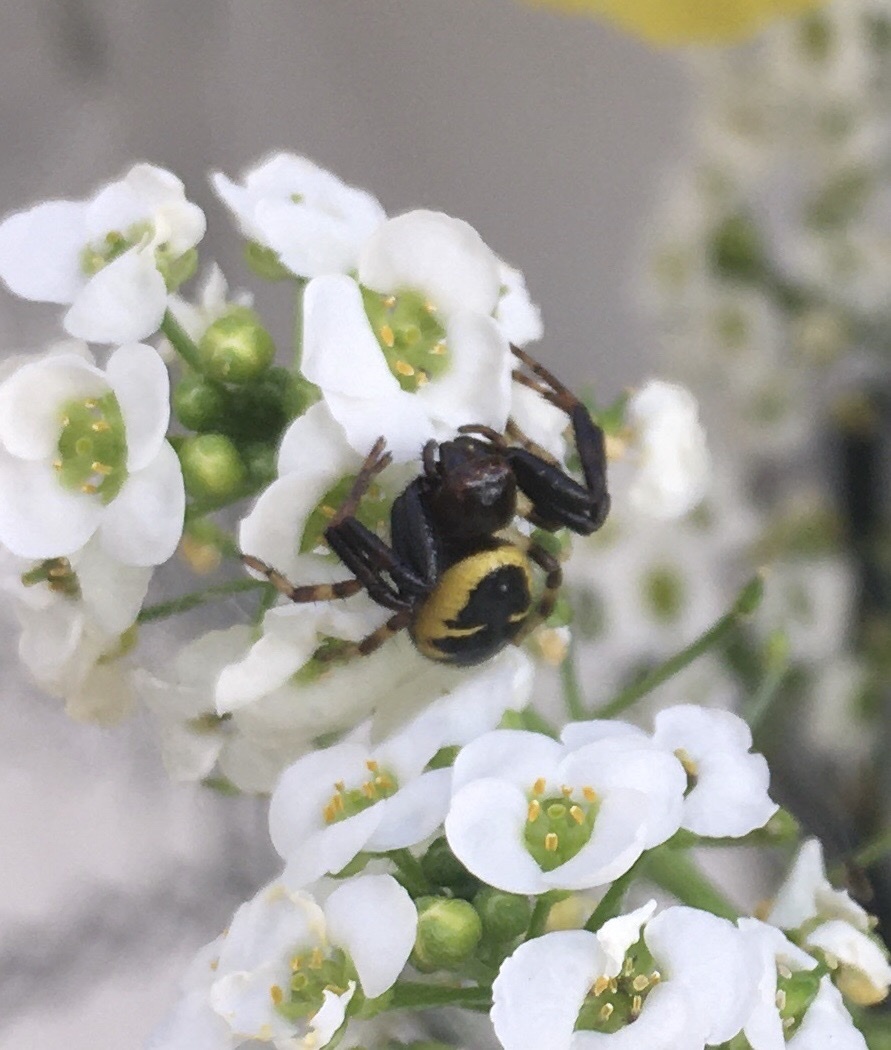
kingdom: Animalia
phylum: Arthropoda
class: Arachnida
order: Araneae
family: Thomisidae
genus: Synema
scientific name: Synema globosum
